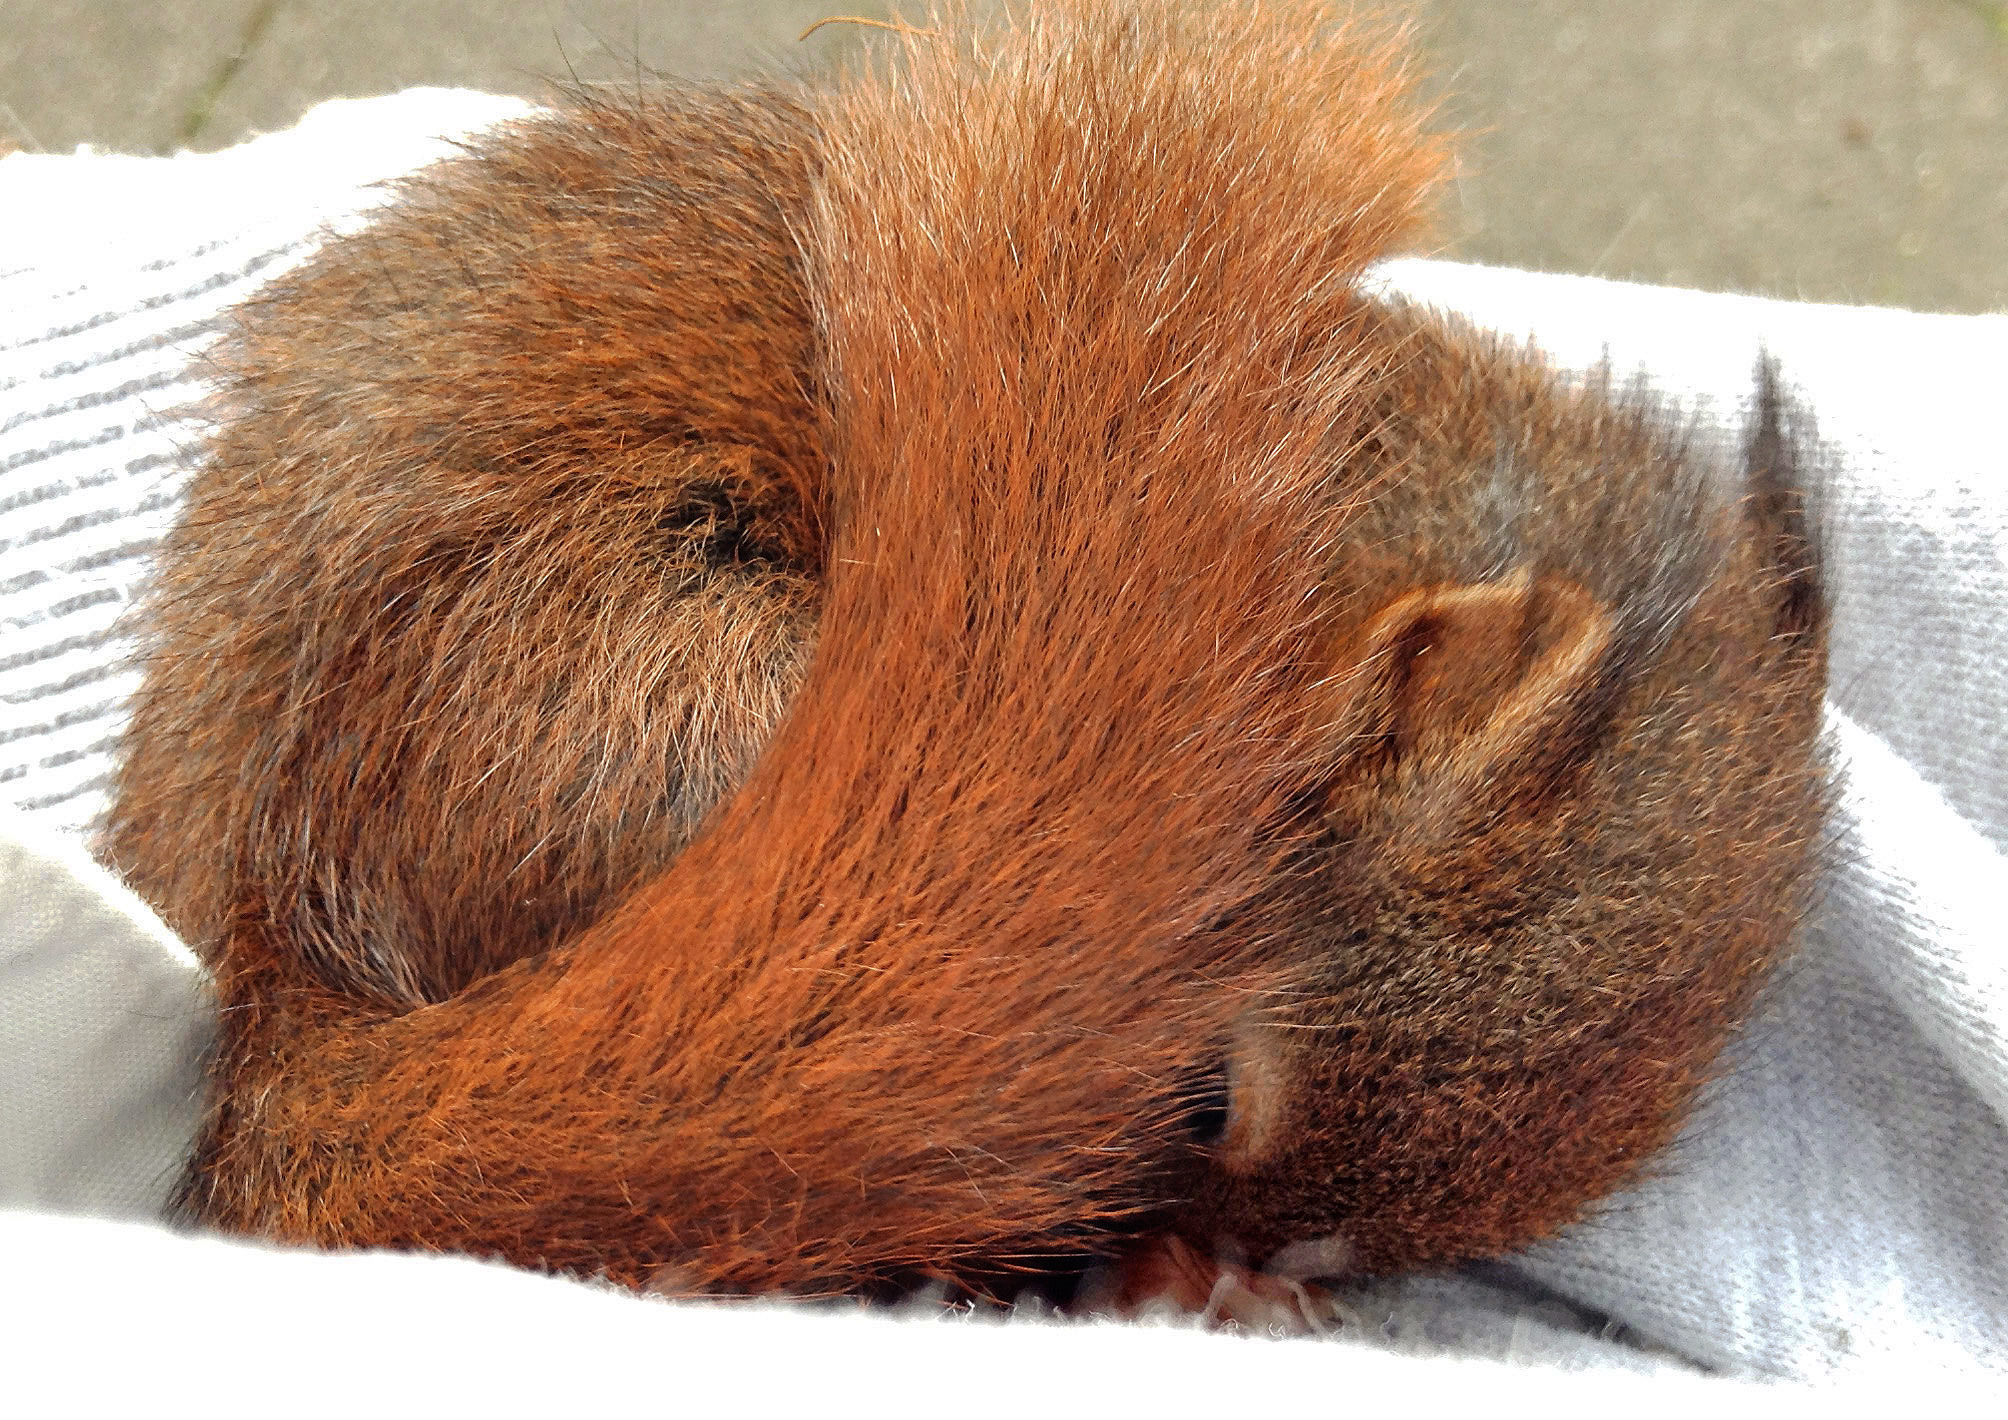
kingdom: Animalia
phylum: Chordata
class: Mammalia
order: Rodentia
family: Sciuridae
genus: Sciurus
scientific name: Sciurus vulgaris
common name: Eurasian red squirrel
